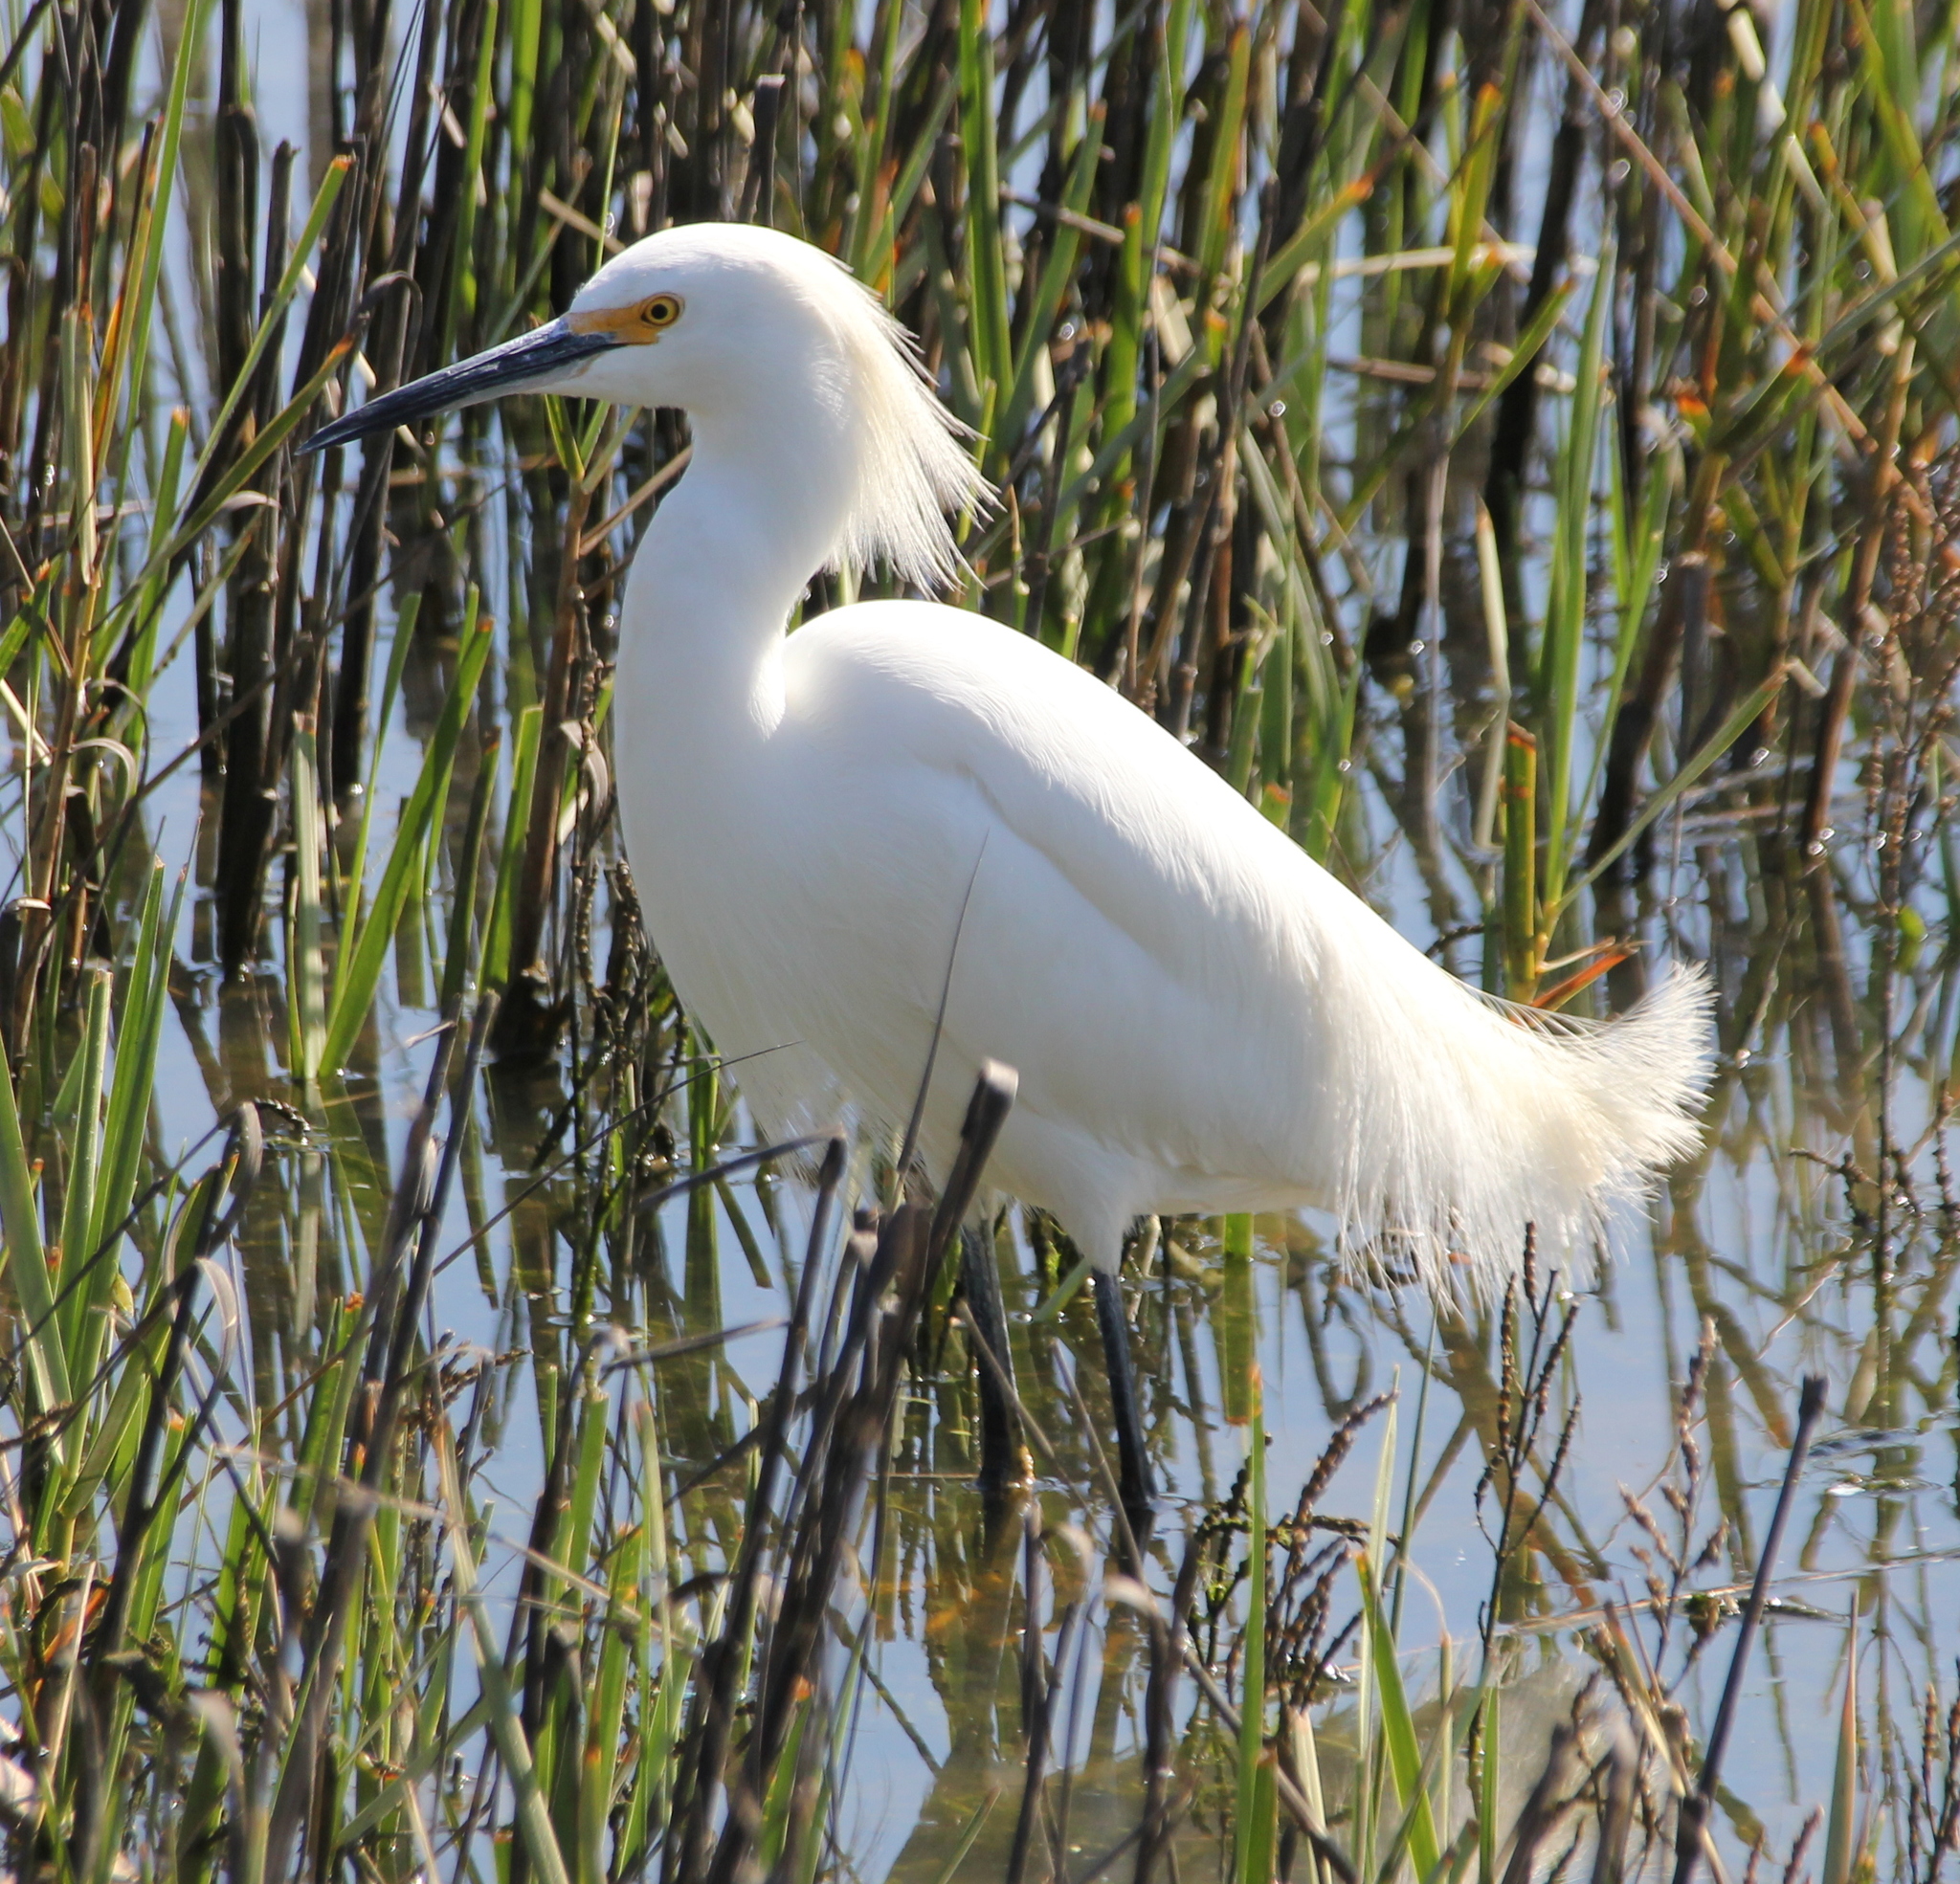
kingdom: Animalia
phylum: Chordata
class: Aves
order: Pelecaniformes
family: Ardeidae
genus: Egretta
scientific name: Egretta thula
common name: Snowy egret
